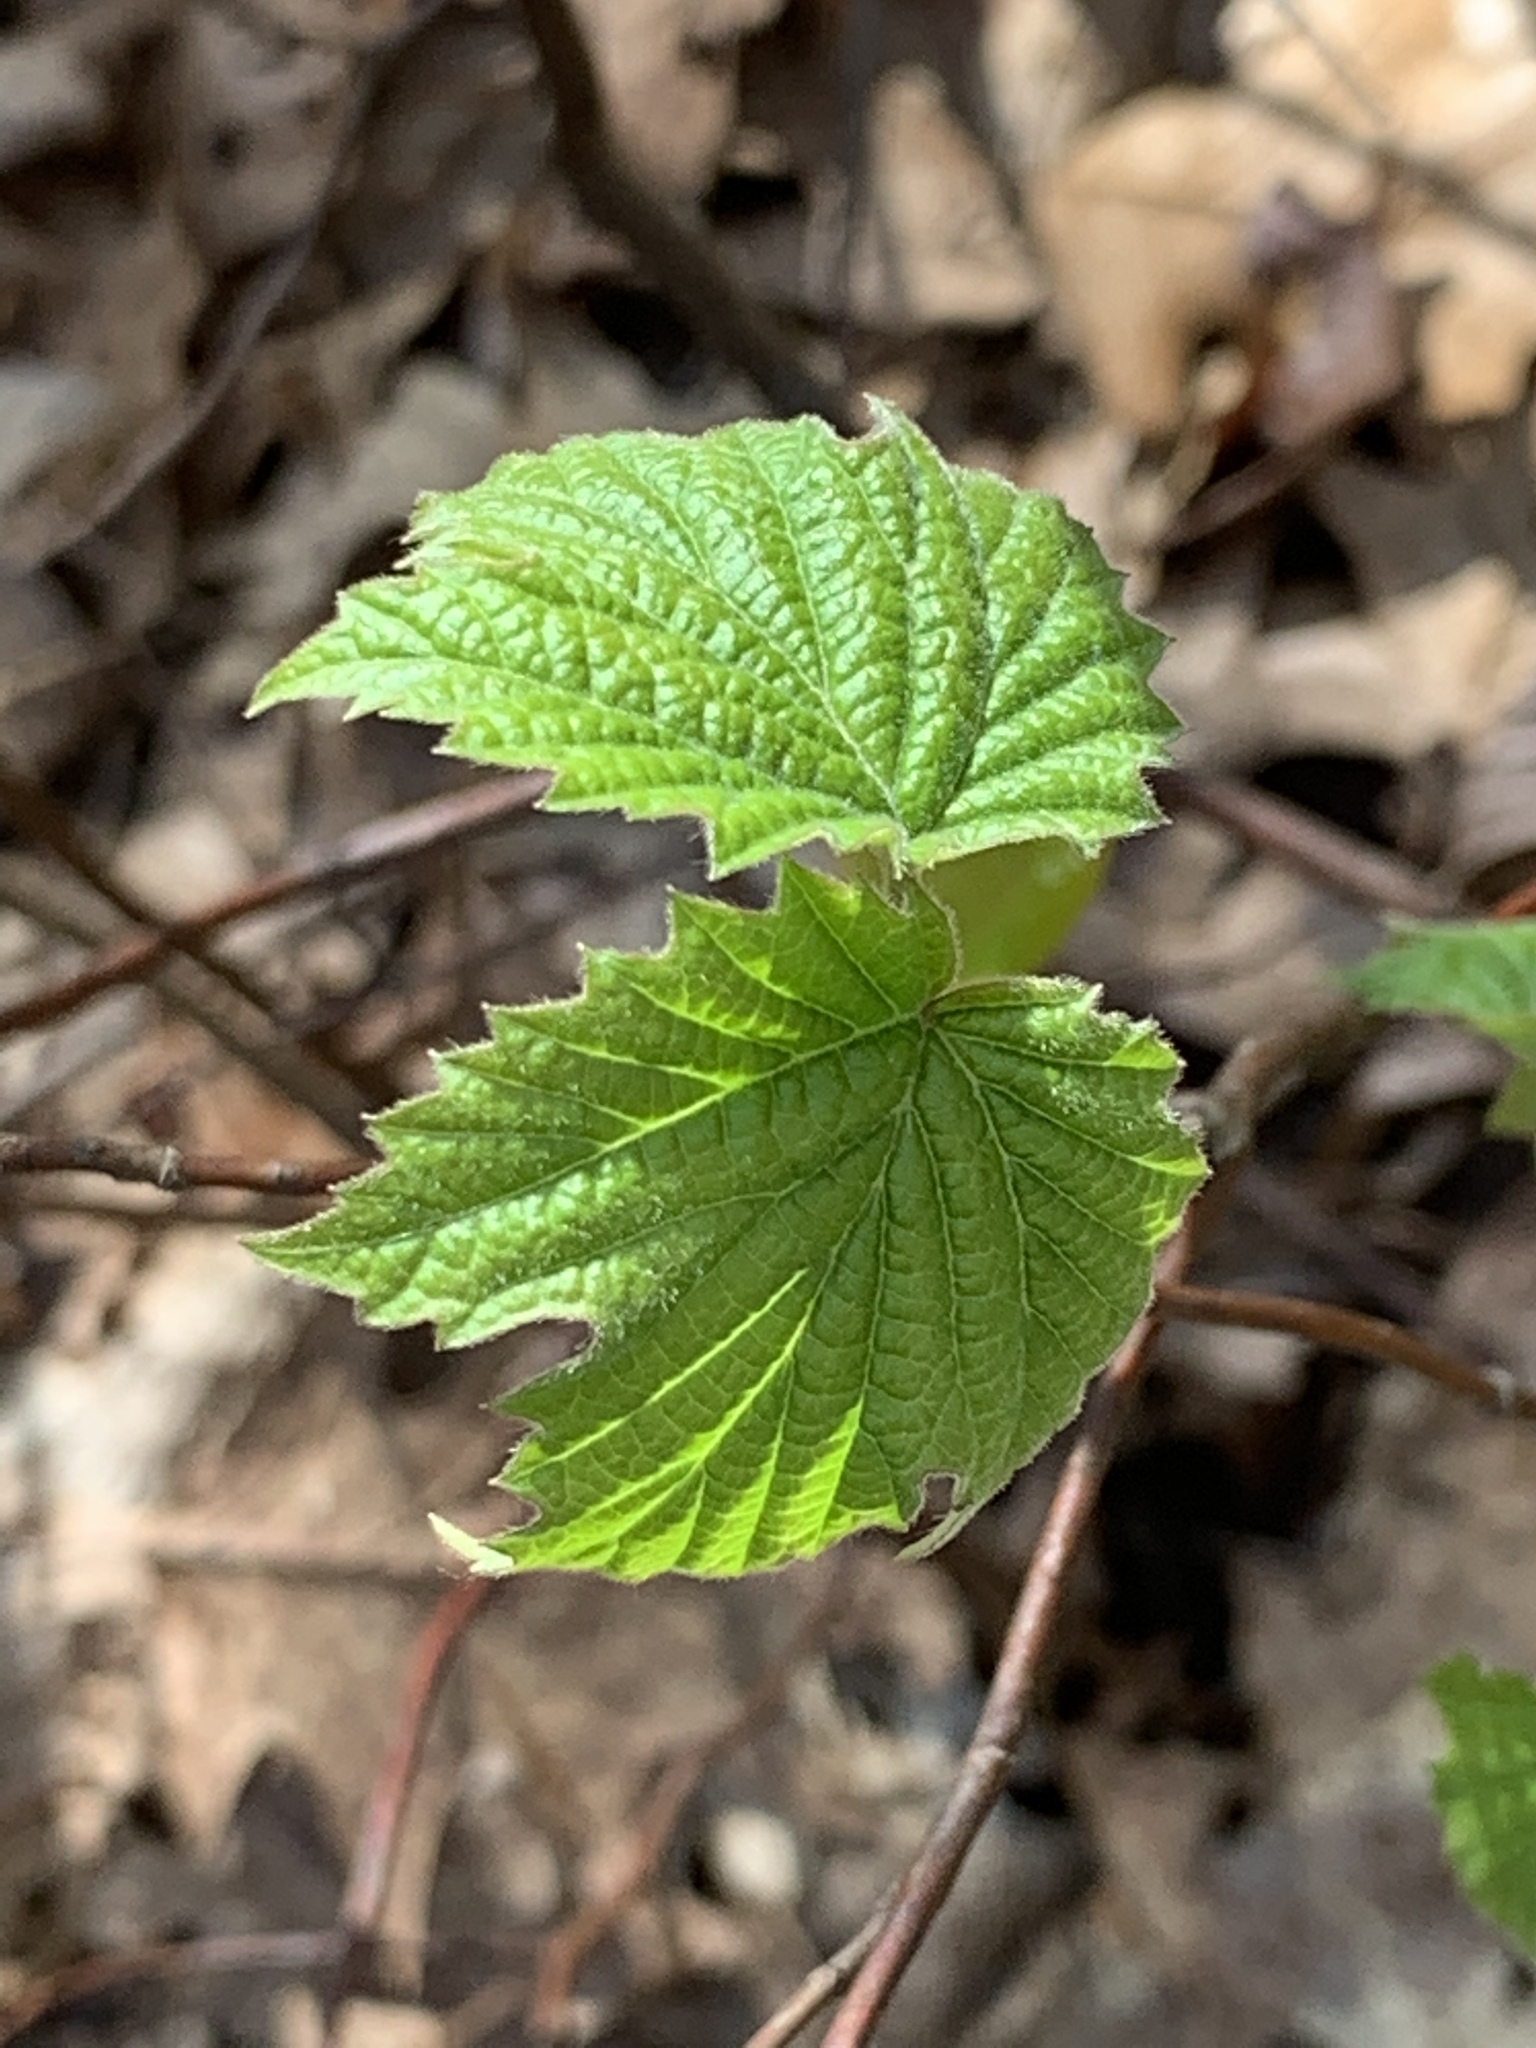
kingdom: Plantae
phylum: Tracheophyta
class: Magnoliopsida
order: Dipsacales
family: Viburnaceae
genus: Viburnum
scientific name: Viburnum acerifolium
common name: Dockmackie
